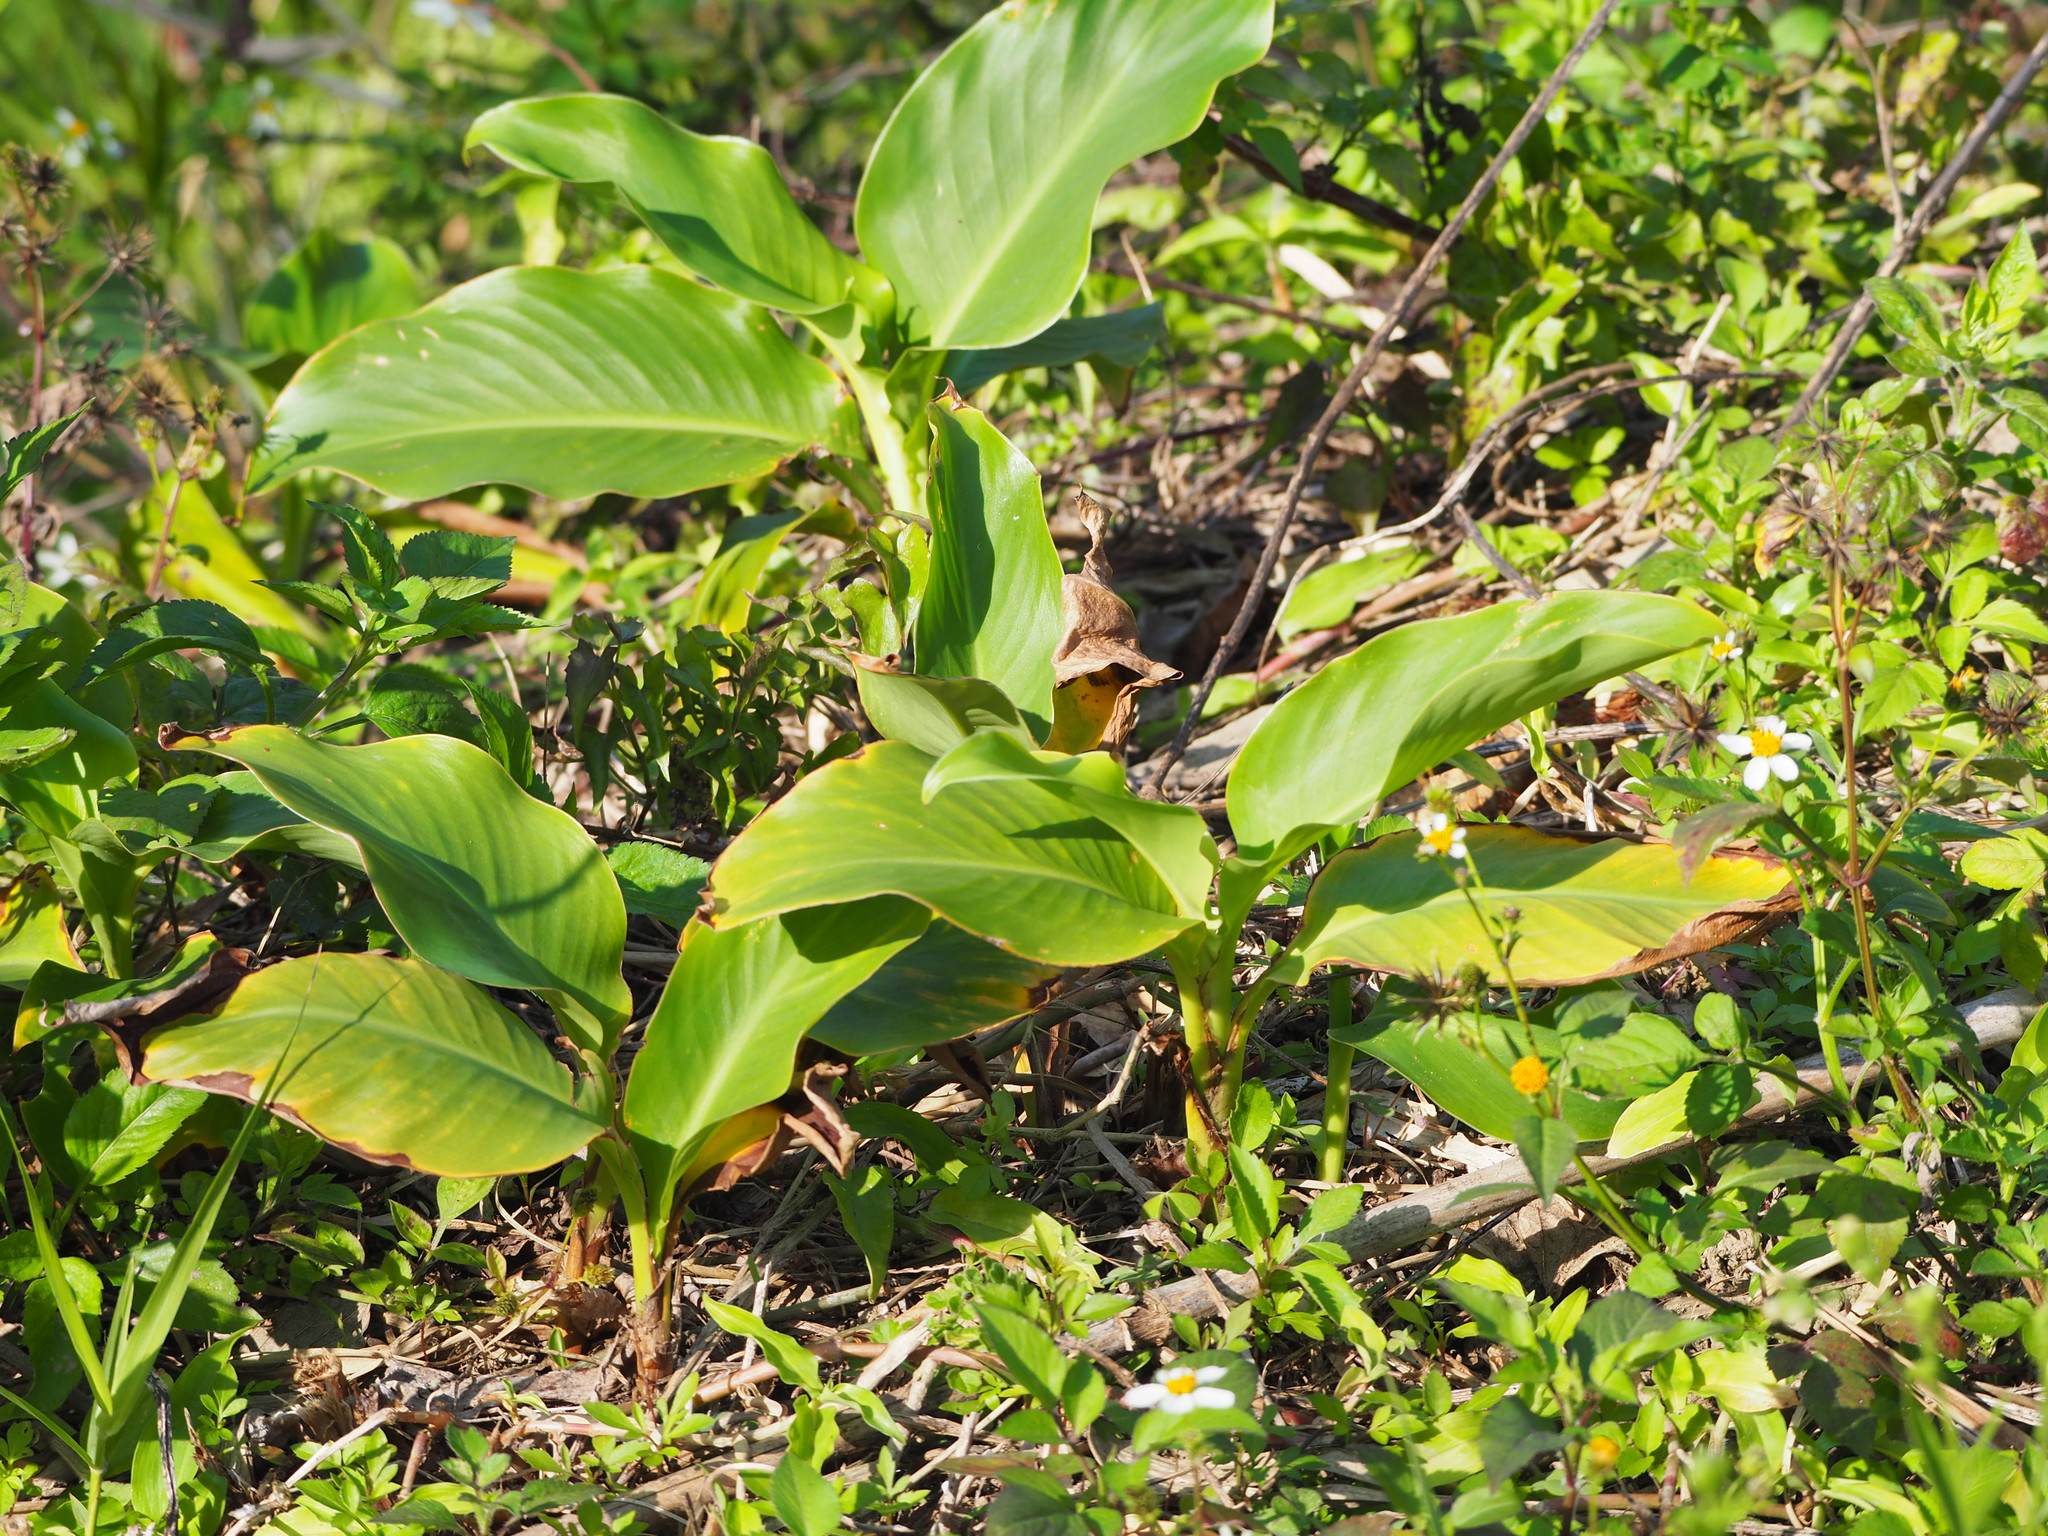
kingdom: Plantae
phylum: Tracheophyta
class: Liliopsida
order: Zingiberales
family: Cannaceae
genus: Canna
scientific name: Canna indica
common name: Indian shot
